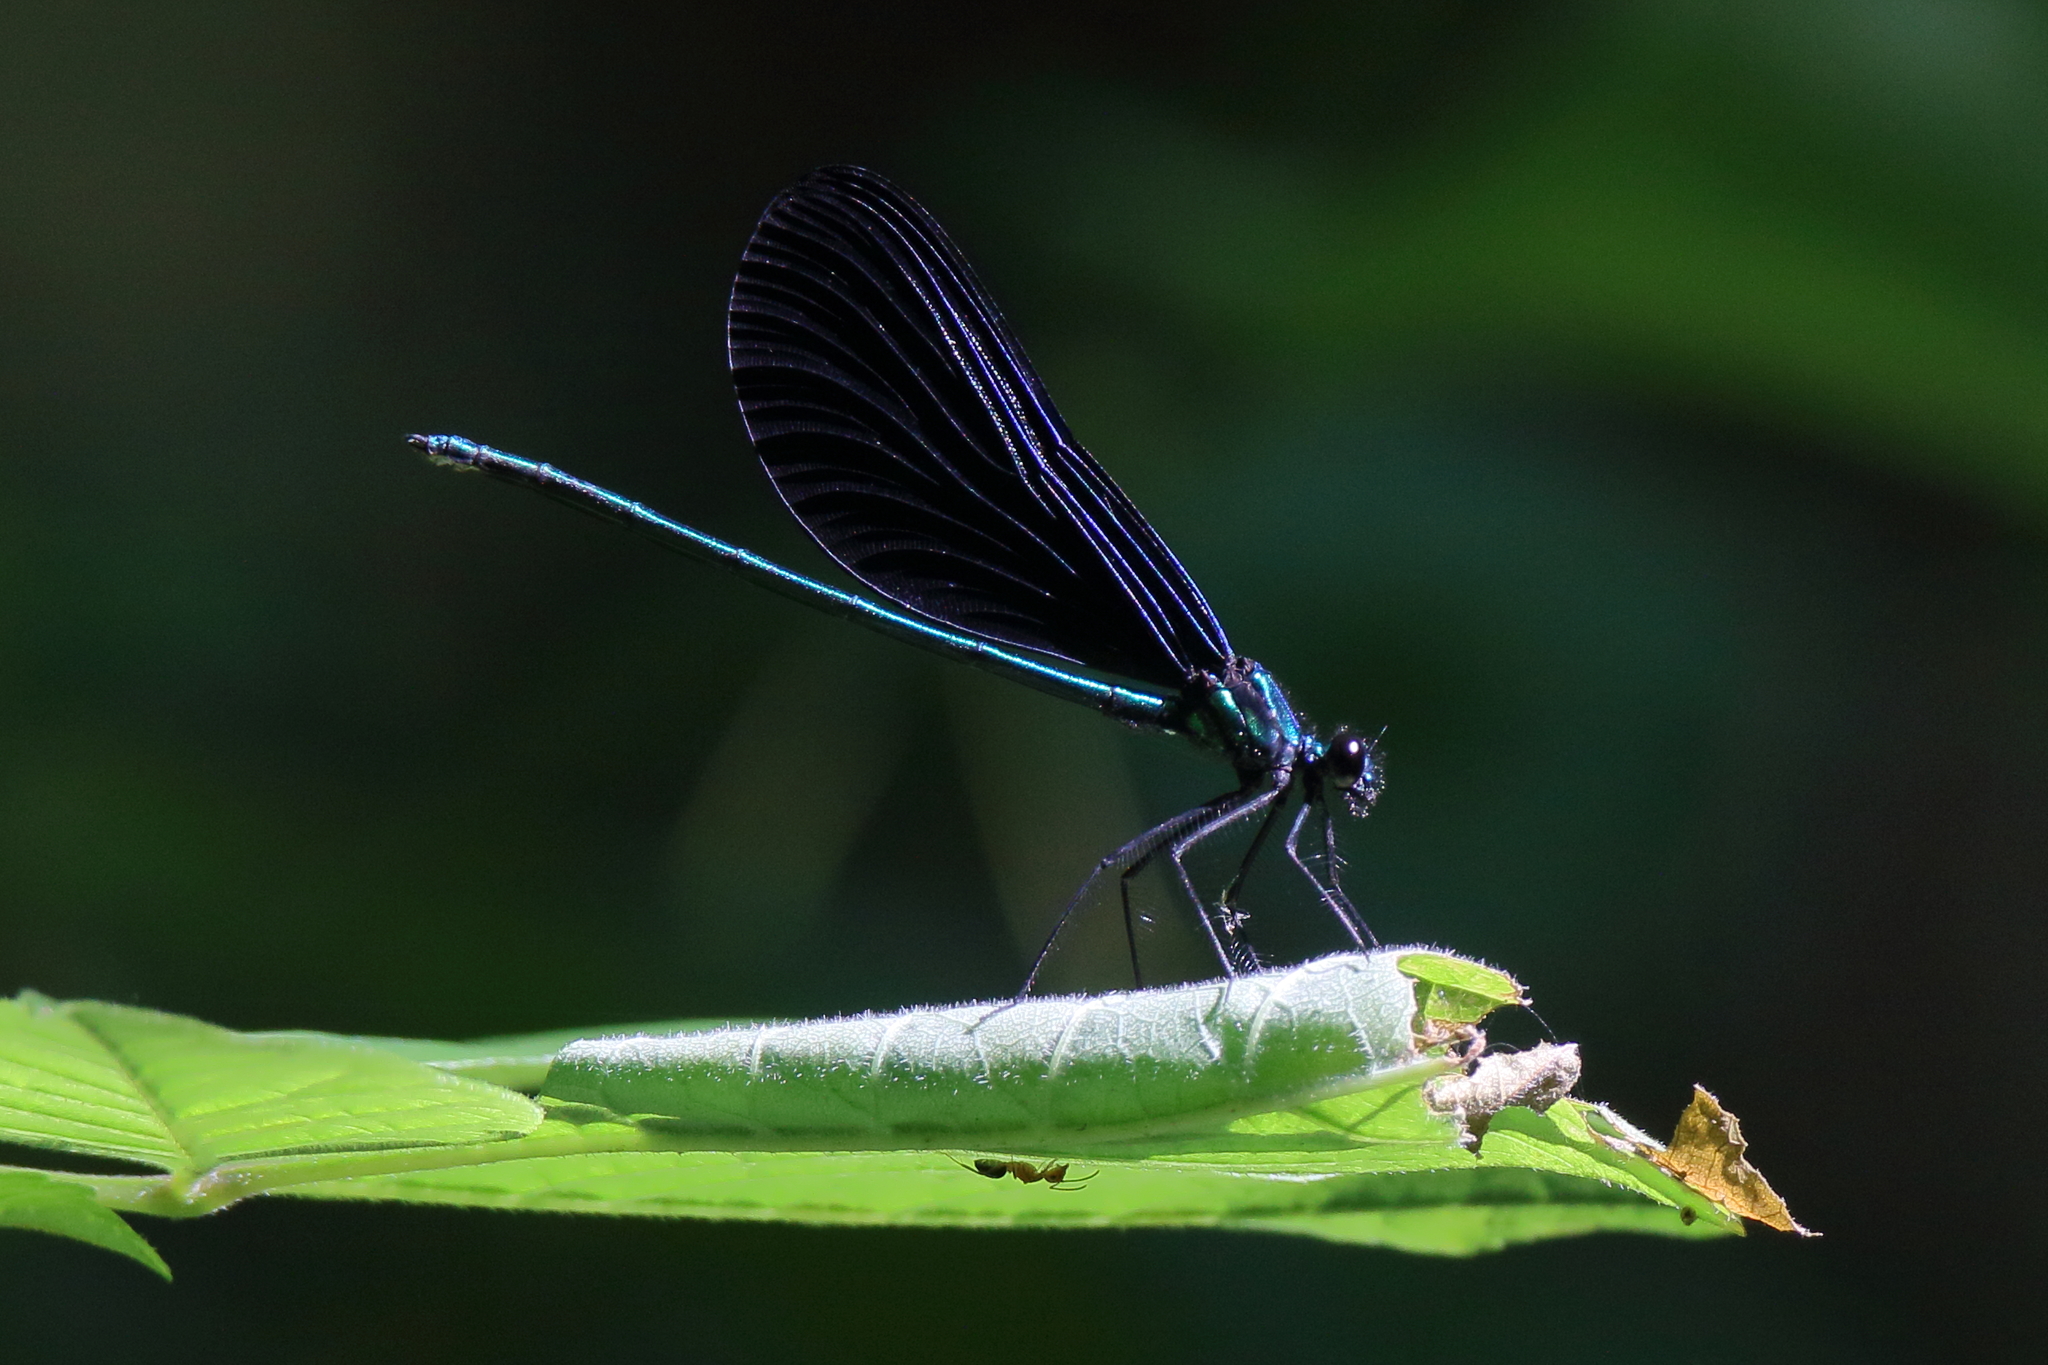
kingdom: Animalia
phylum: Arthropoda
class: Insecta
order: Odonata
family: Calopterygidae
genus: Calopteryx
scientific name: Calopteryx maculata
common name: Ebony jewelwing
